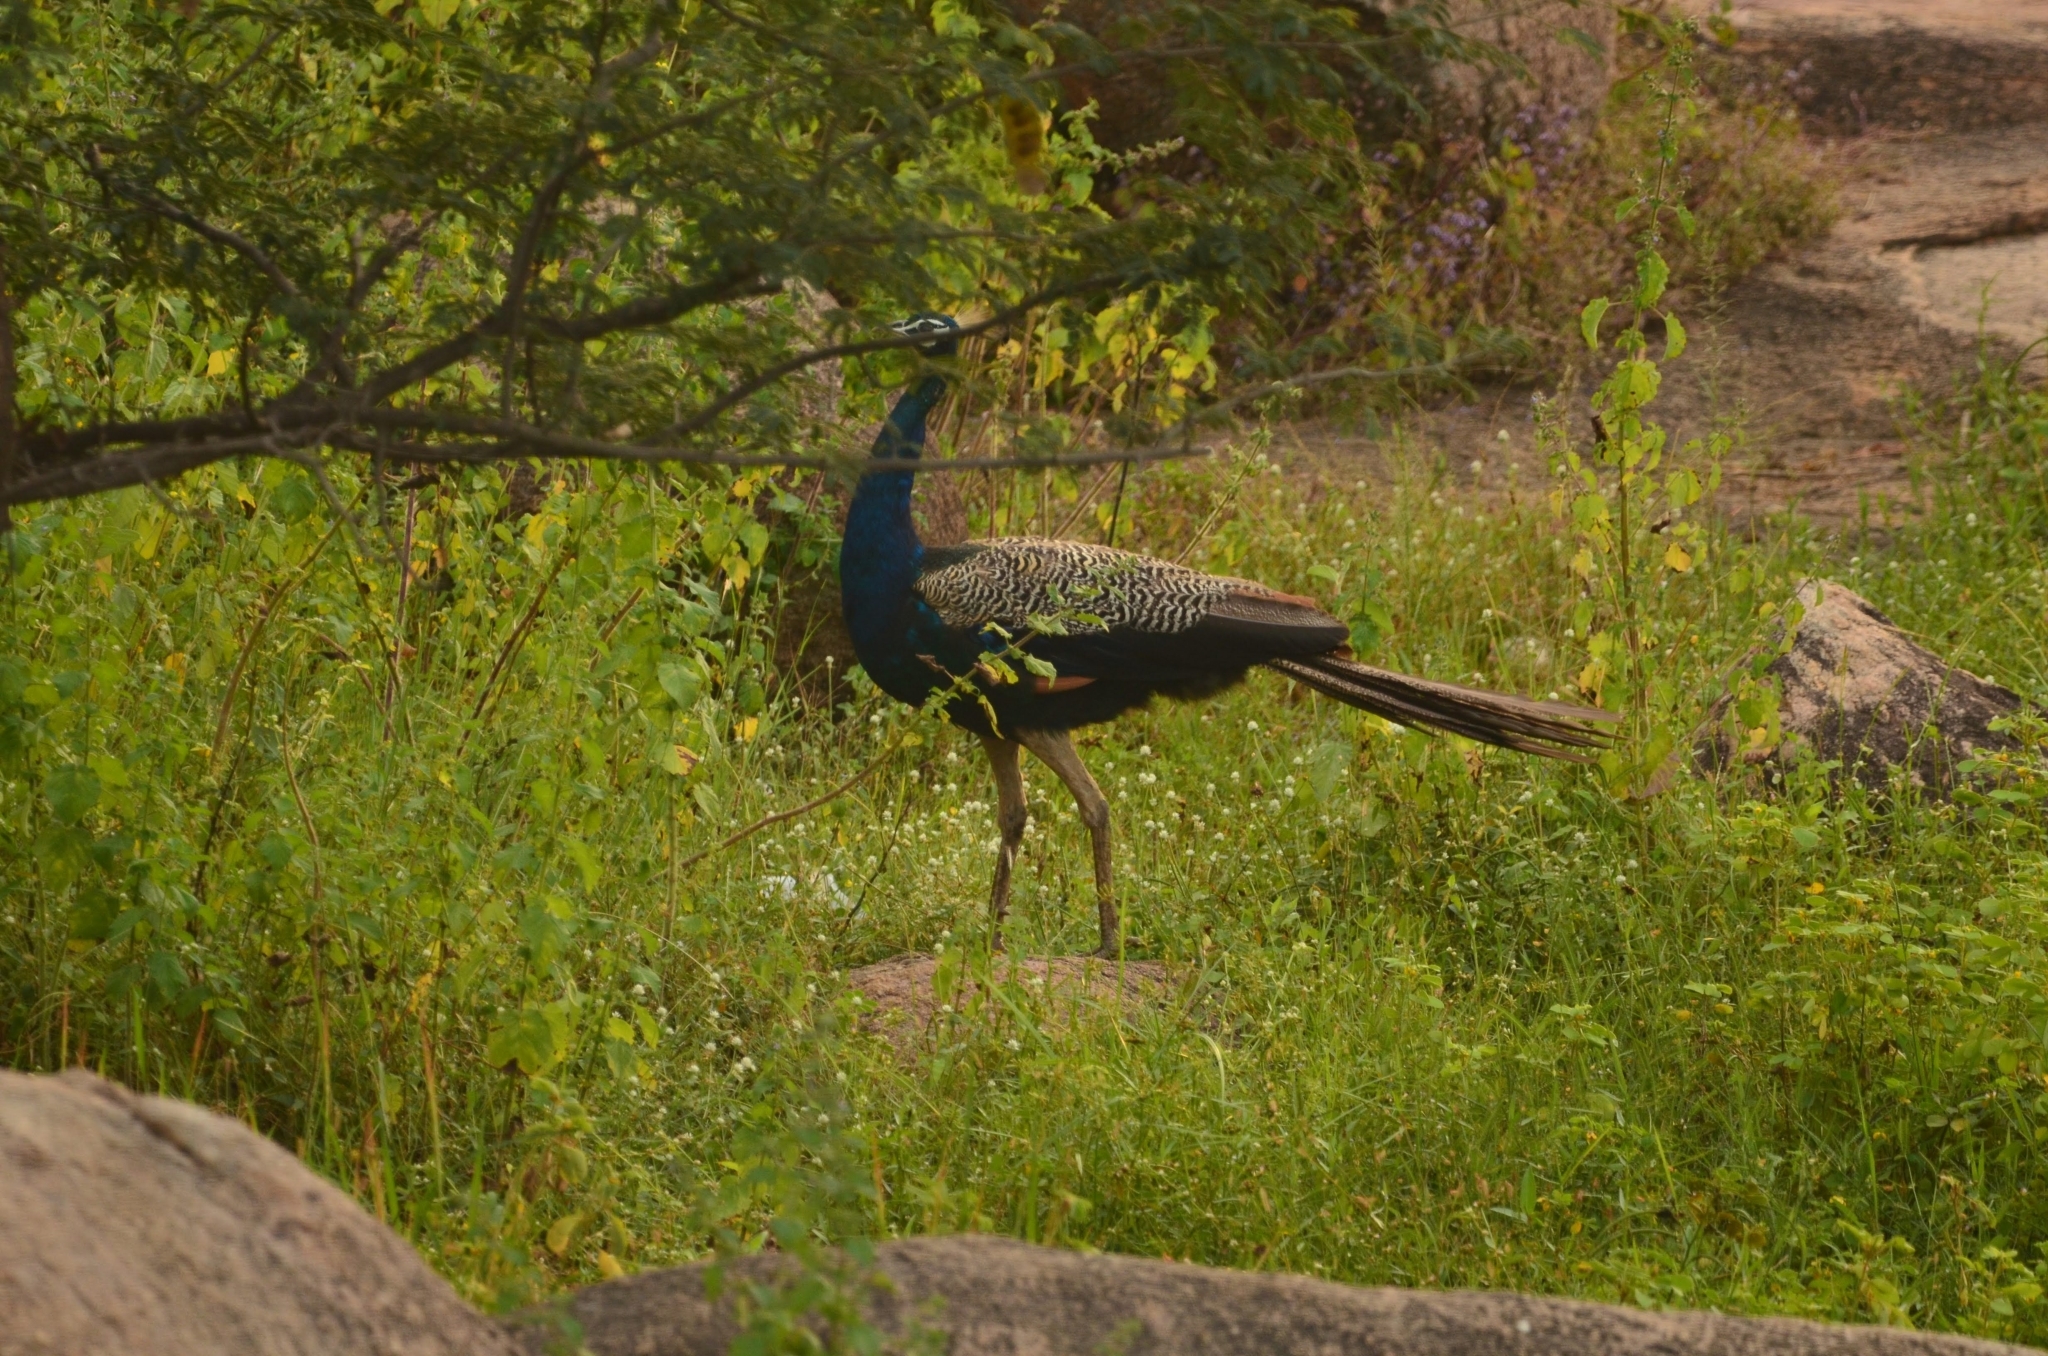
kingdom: Animalia
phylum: Chordata
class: Aves
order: Galliformes
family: Phasianidae
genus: Pavo
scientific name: Pavo cristatus
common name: Indian peafowl
